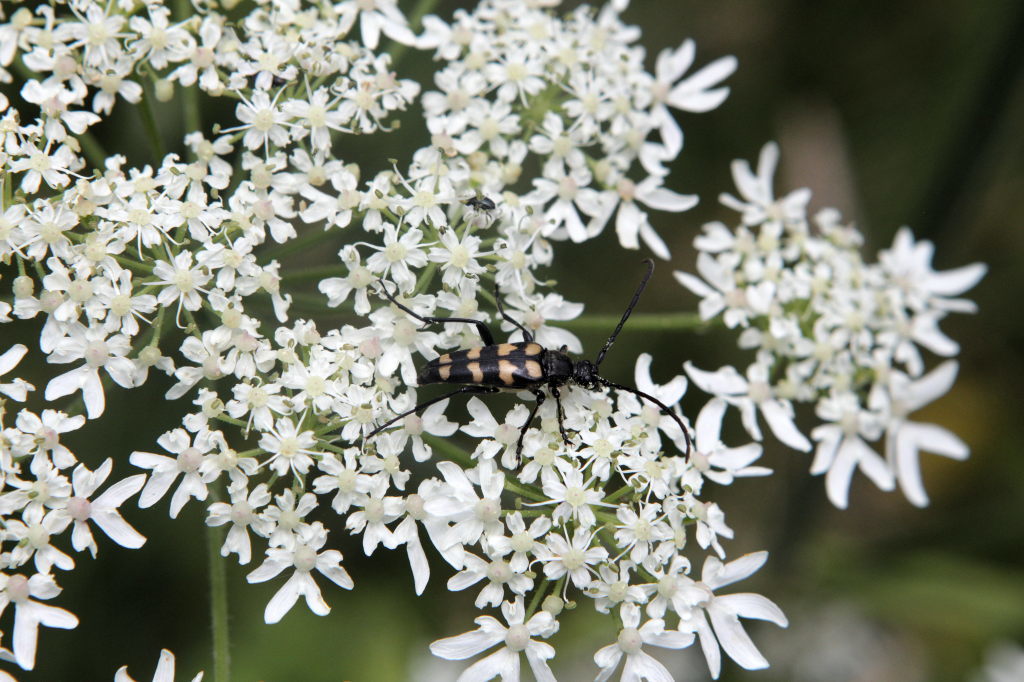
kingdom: Animalia
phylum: Arthropoda
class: Insecta
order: Coleoptera
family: Cerambycidae
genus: Leptura
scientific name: Leptura quadrifasciata
